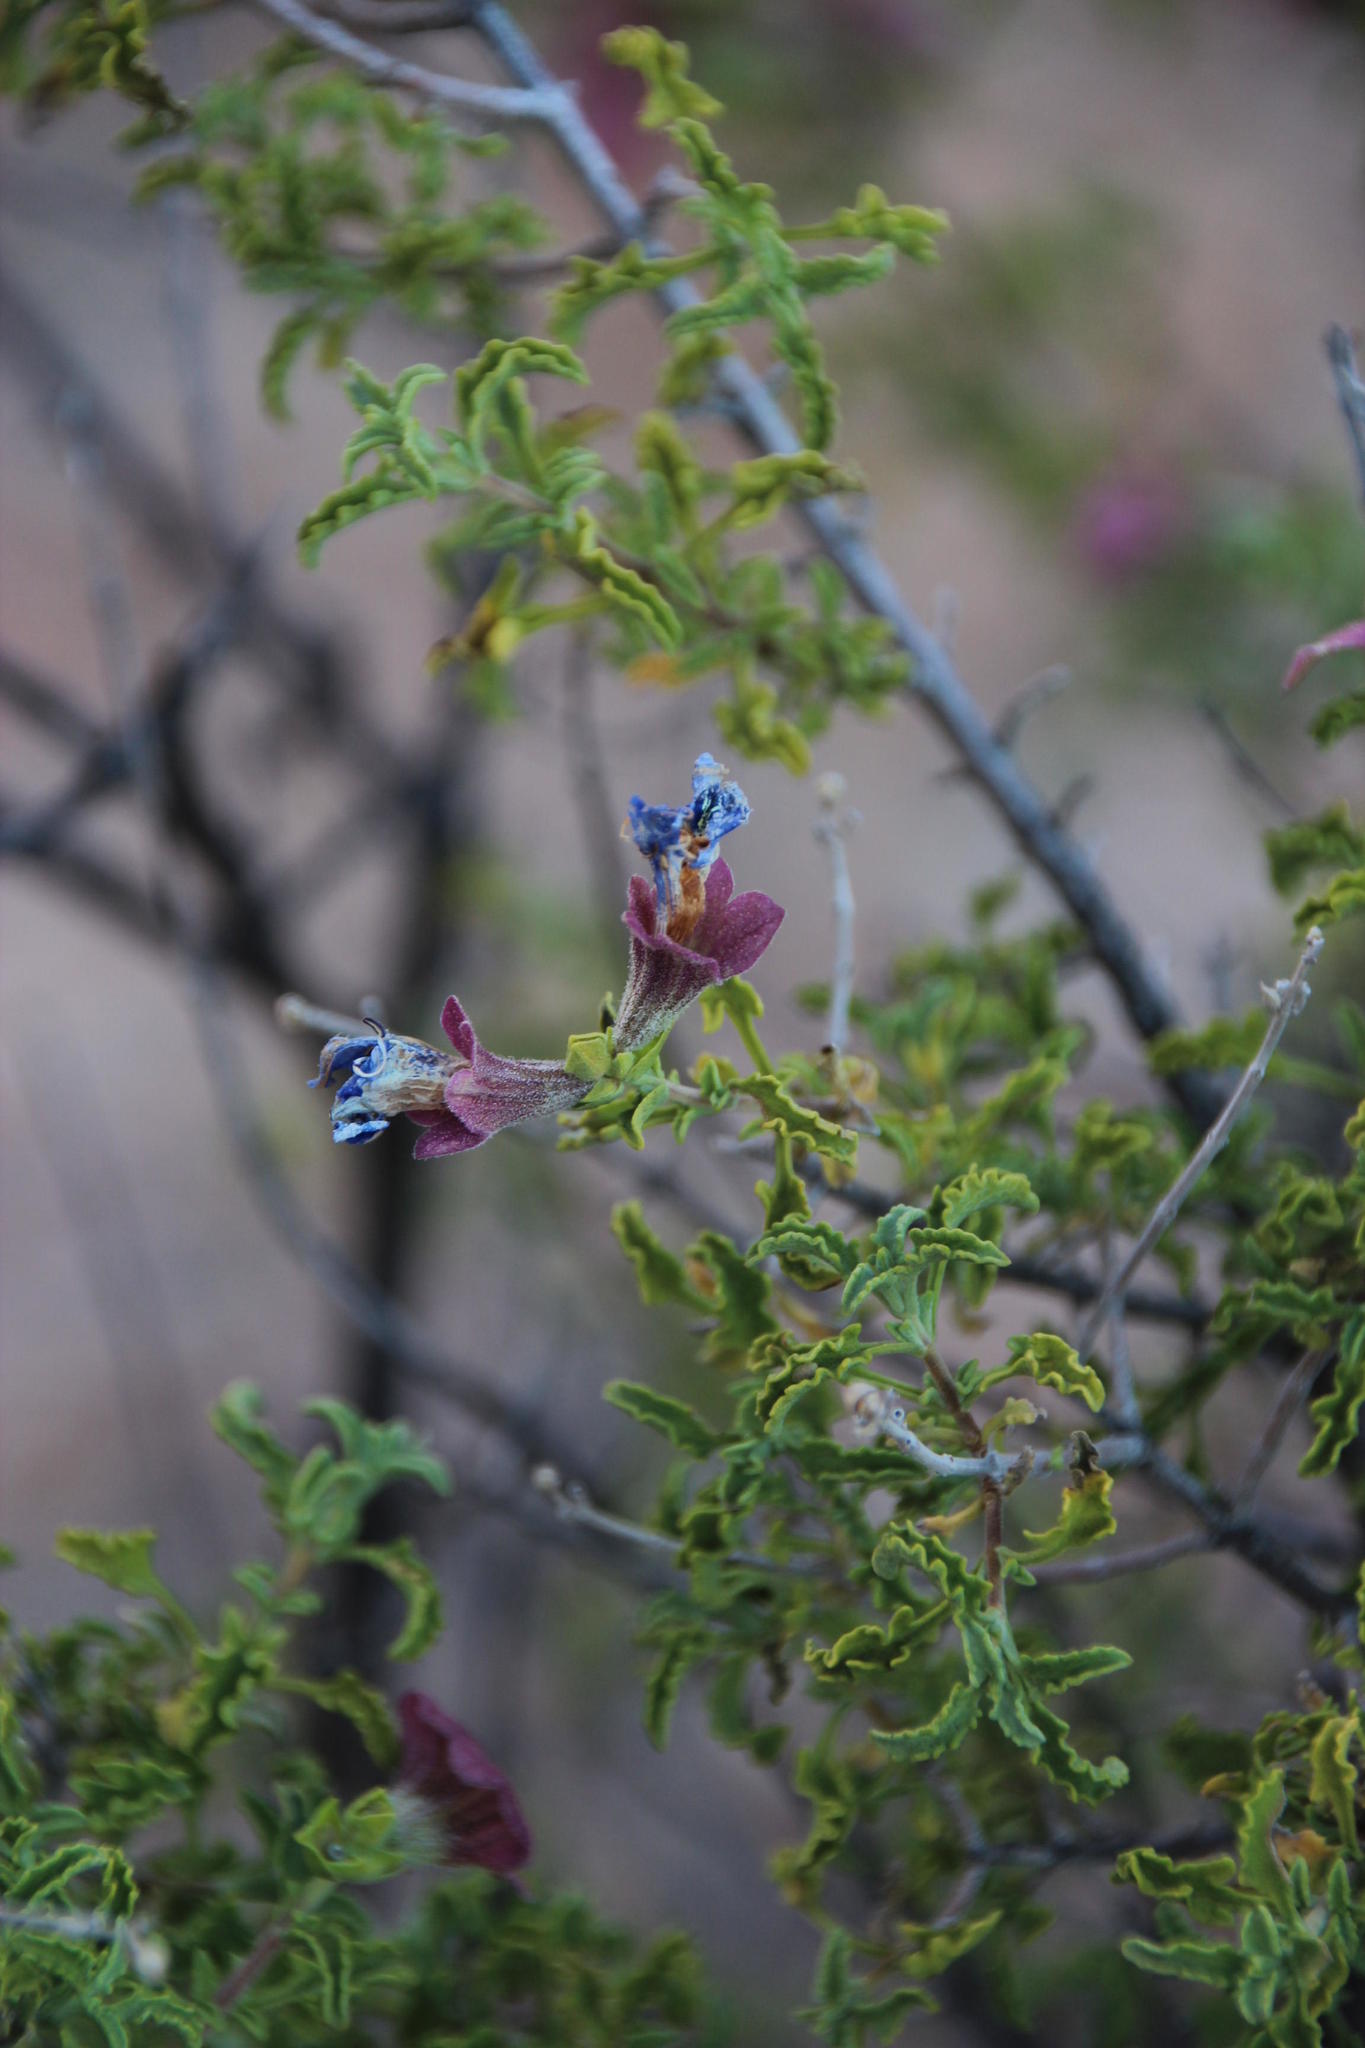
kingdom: Plantae
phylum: Tracheophyta
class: Magnoliopsida
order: Lamiales
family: Lamiaceae
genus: Salvia
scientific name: Salvia dentata
